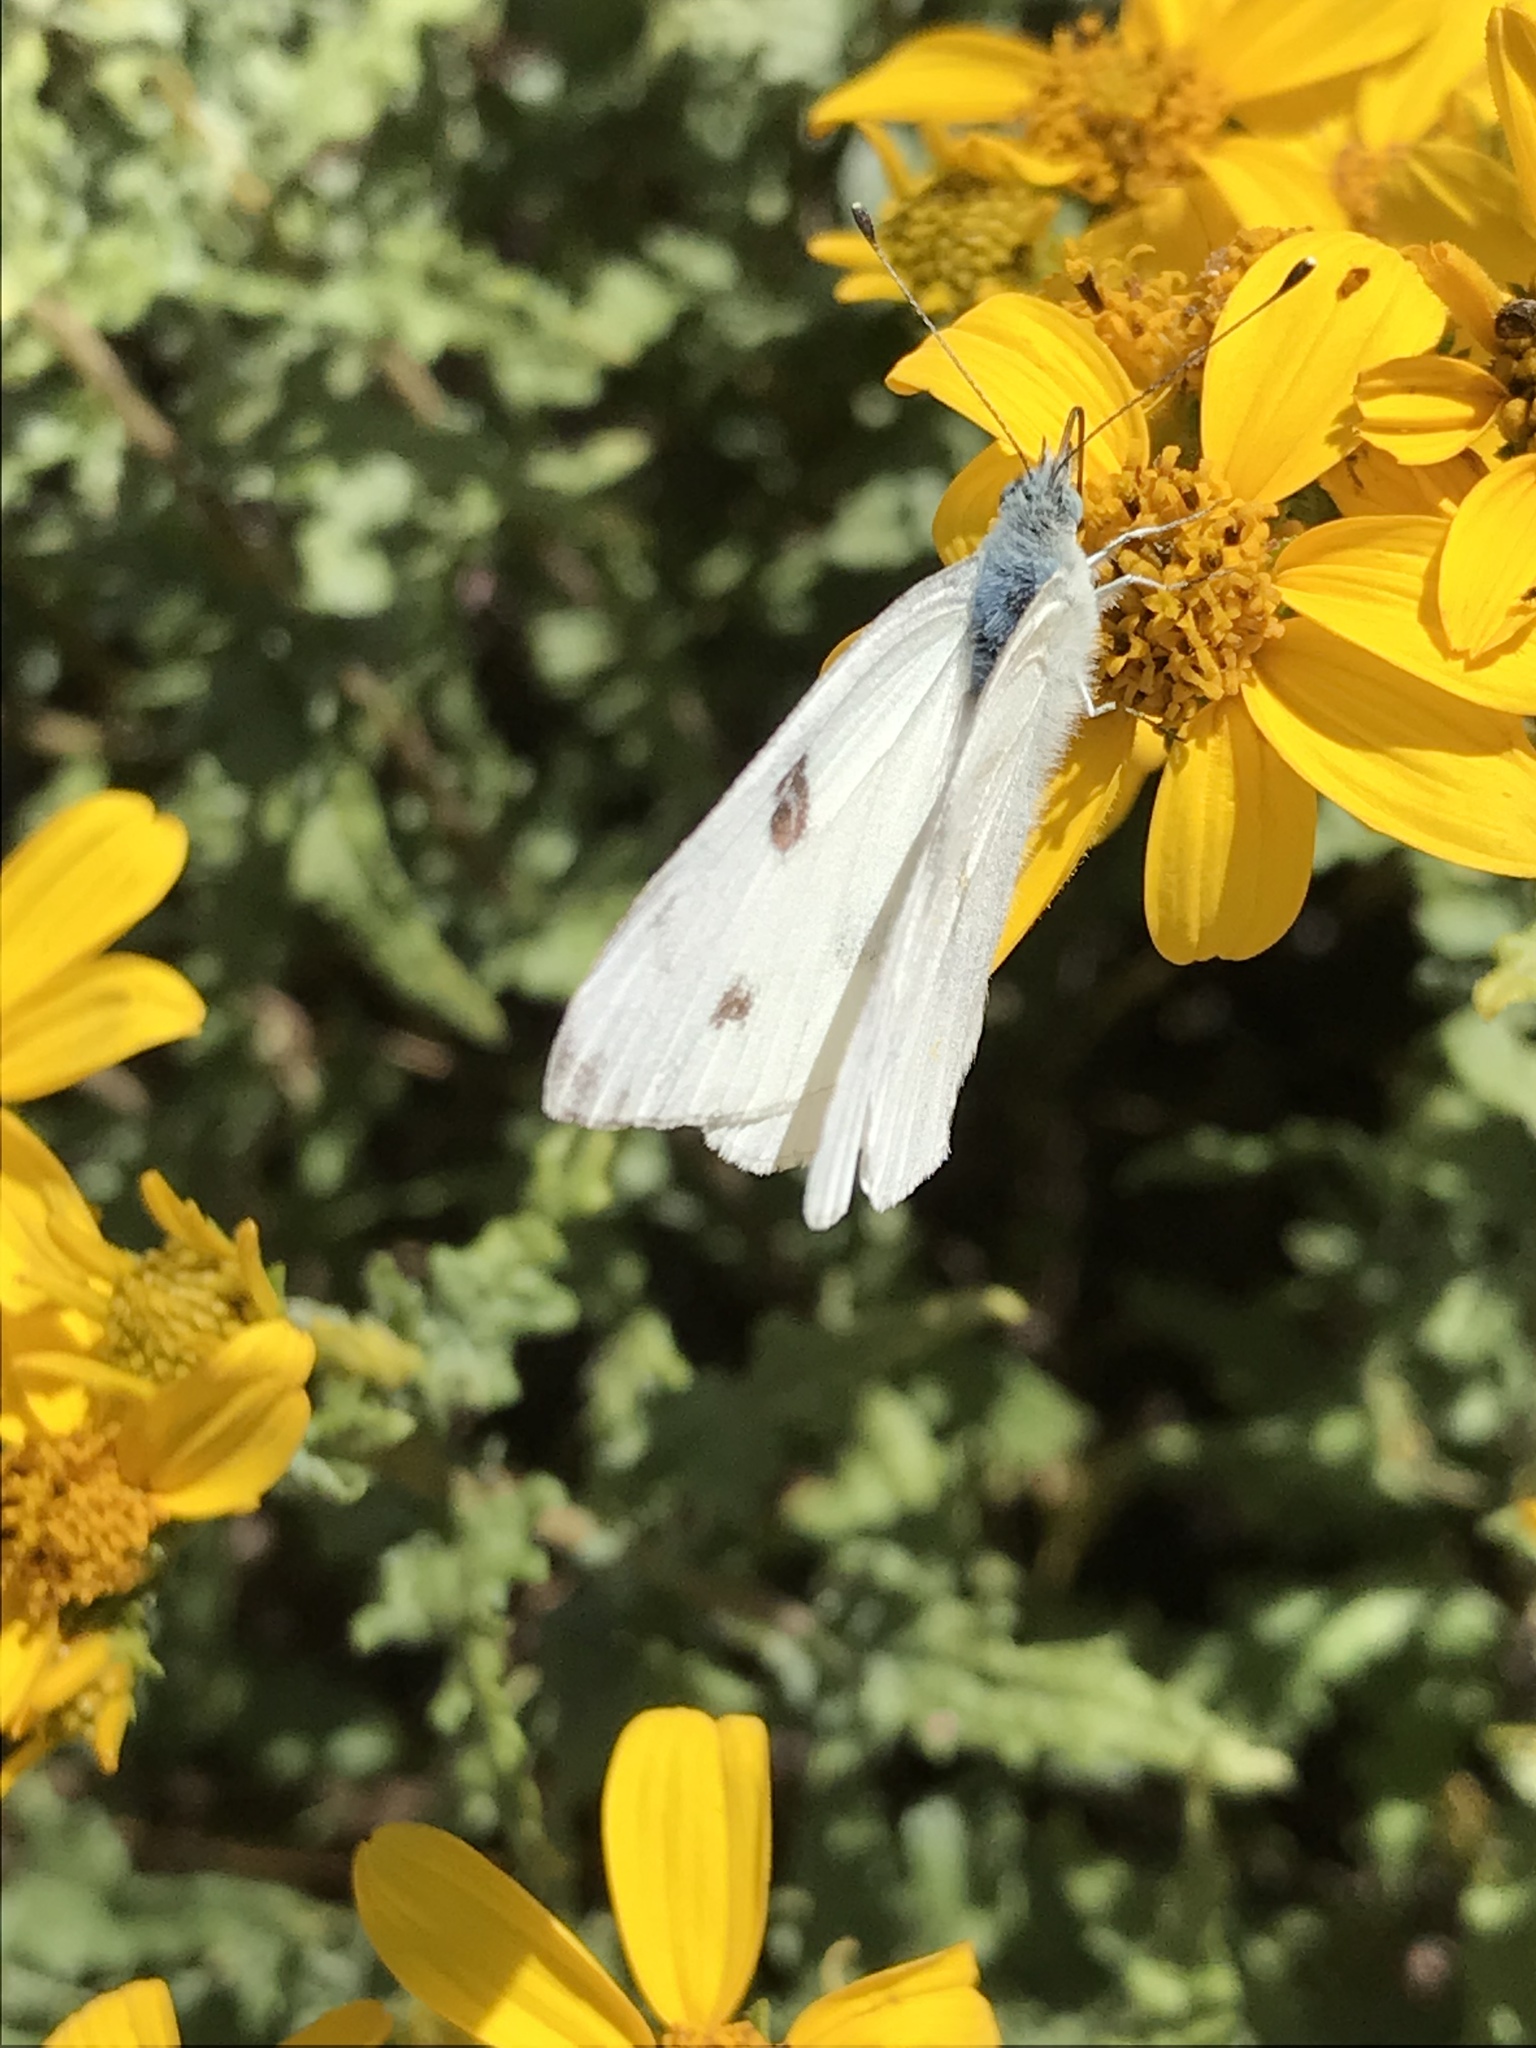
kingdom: Animalia
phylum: Arthropoda
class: Insecta
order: Lepidoptera
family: Pieridae
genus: Pontia
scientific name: Pontia protodice
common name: Checkered white
